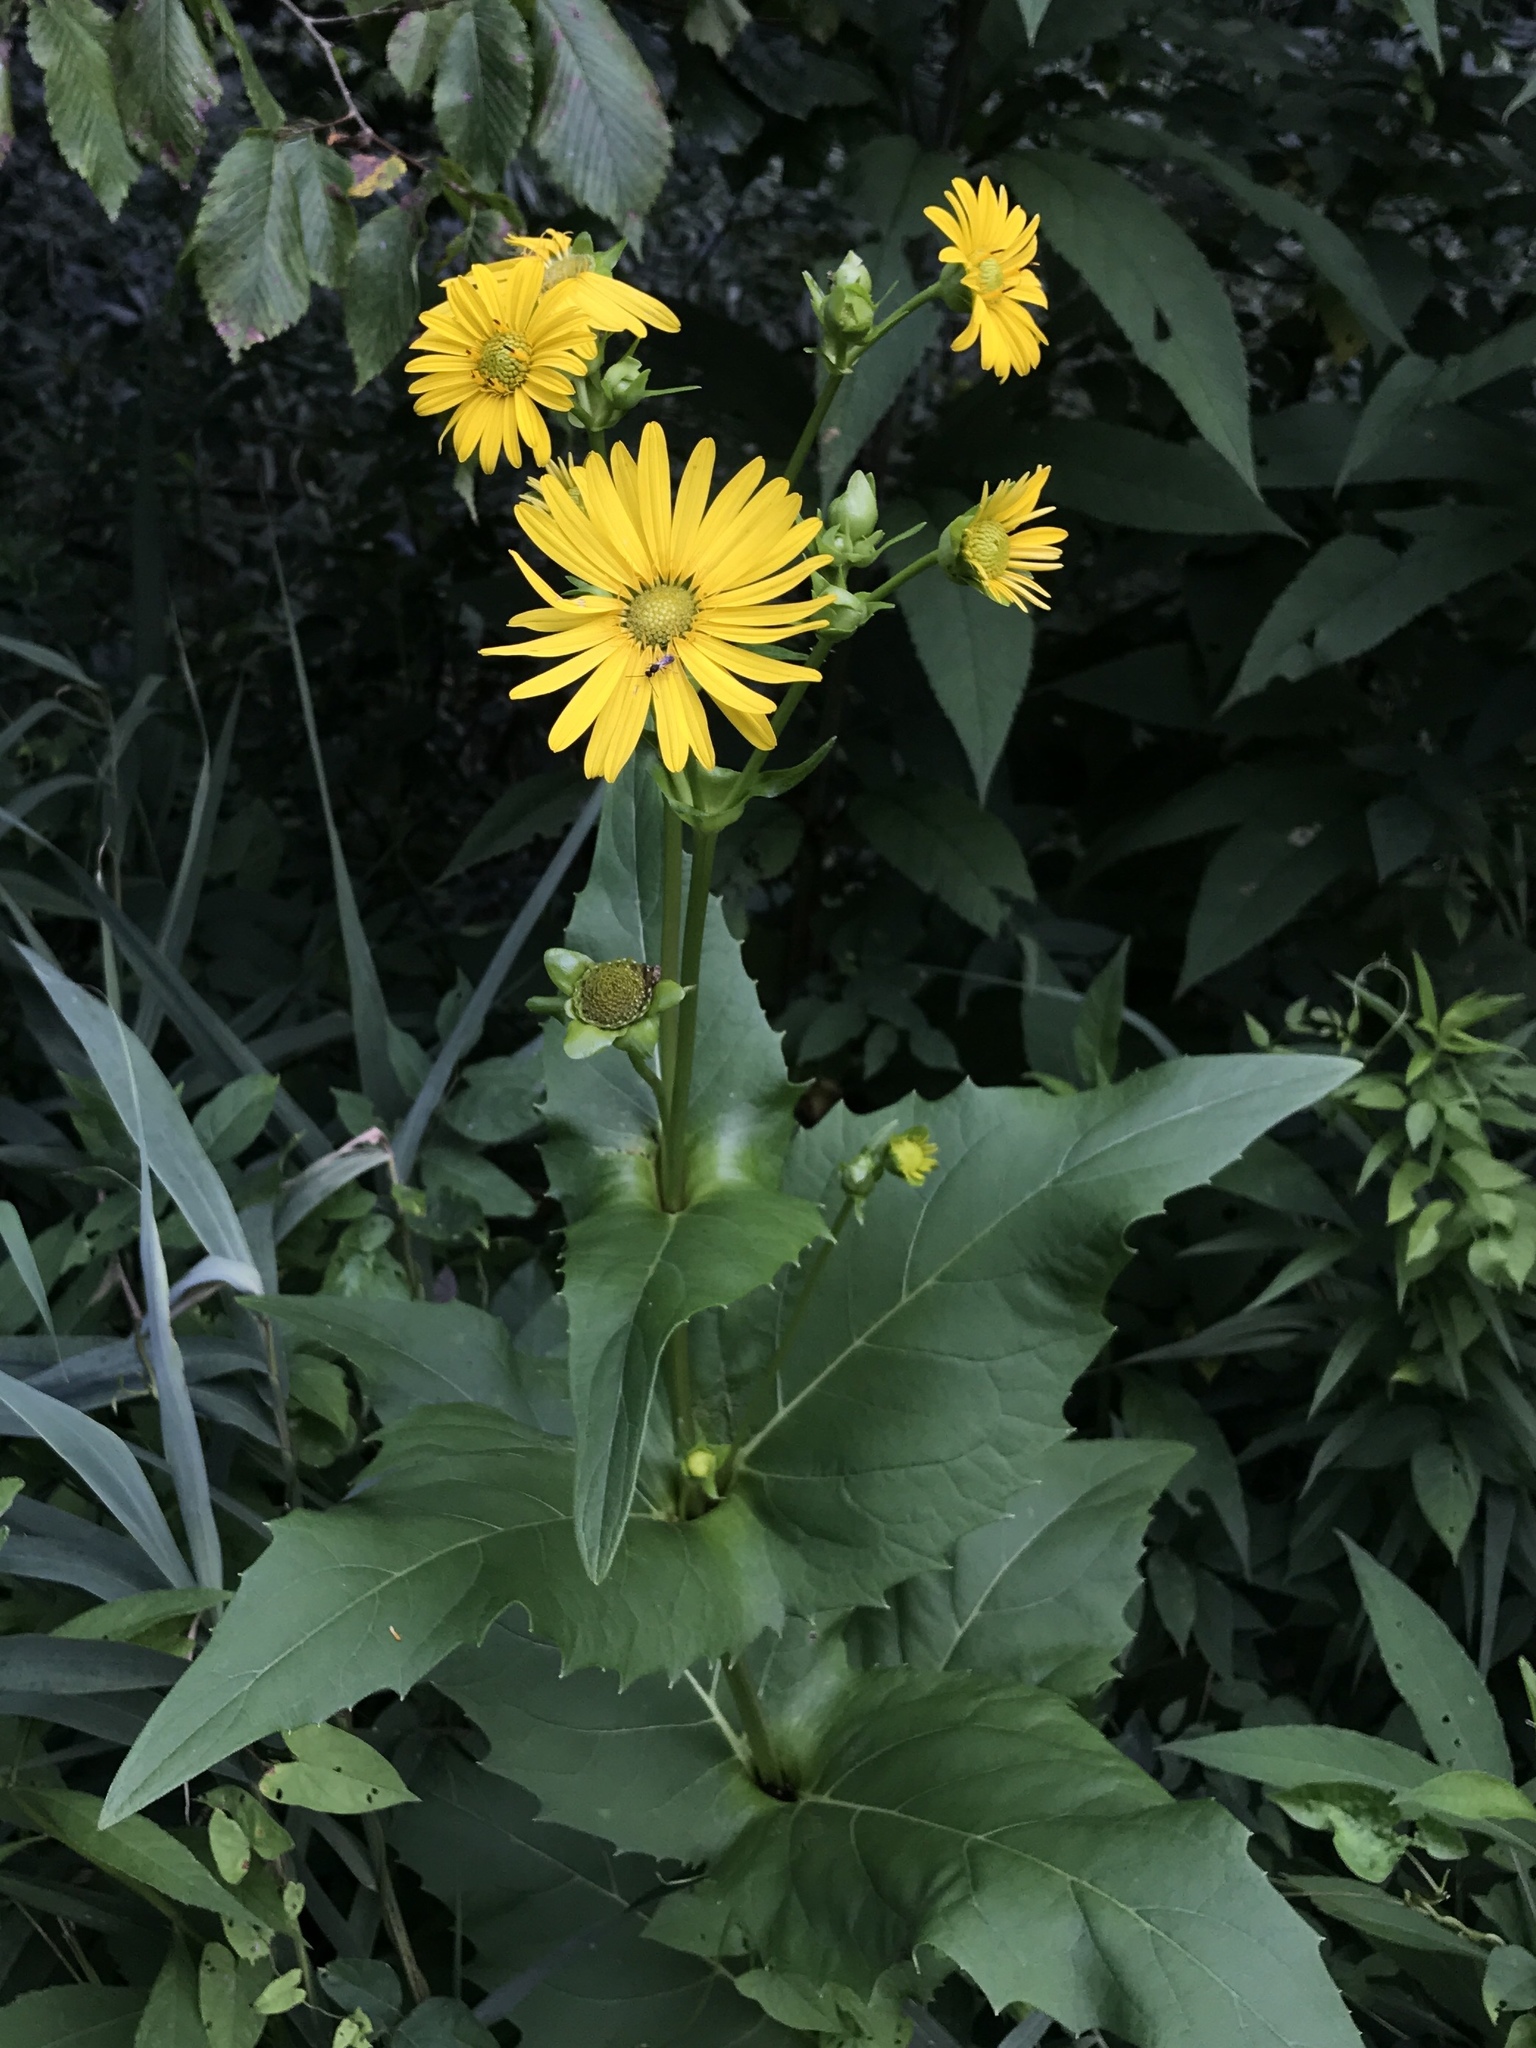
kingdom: Plantae
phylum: Tracheophyta
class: Magnoliopsida
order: Asterales
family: Asteraceae
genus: Silphium
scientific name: Silphium perfoliatum
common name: Cup-plant
